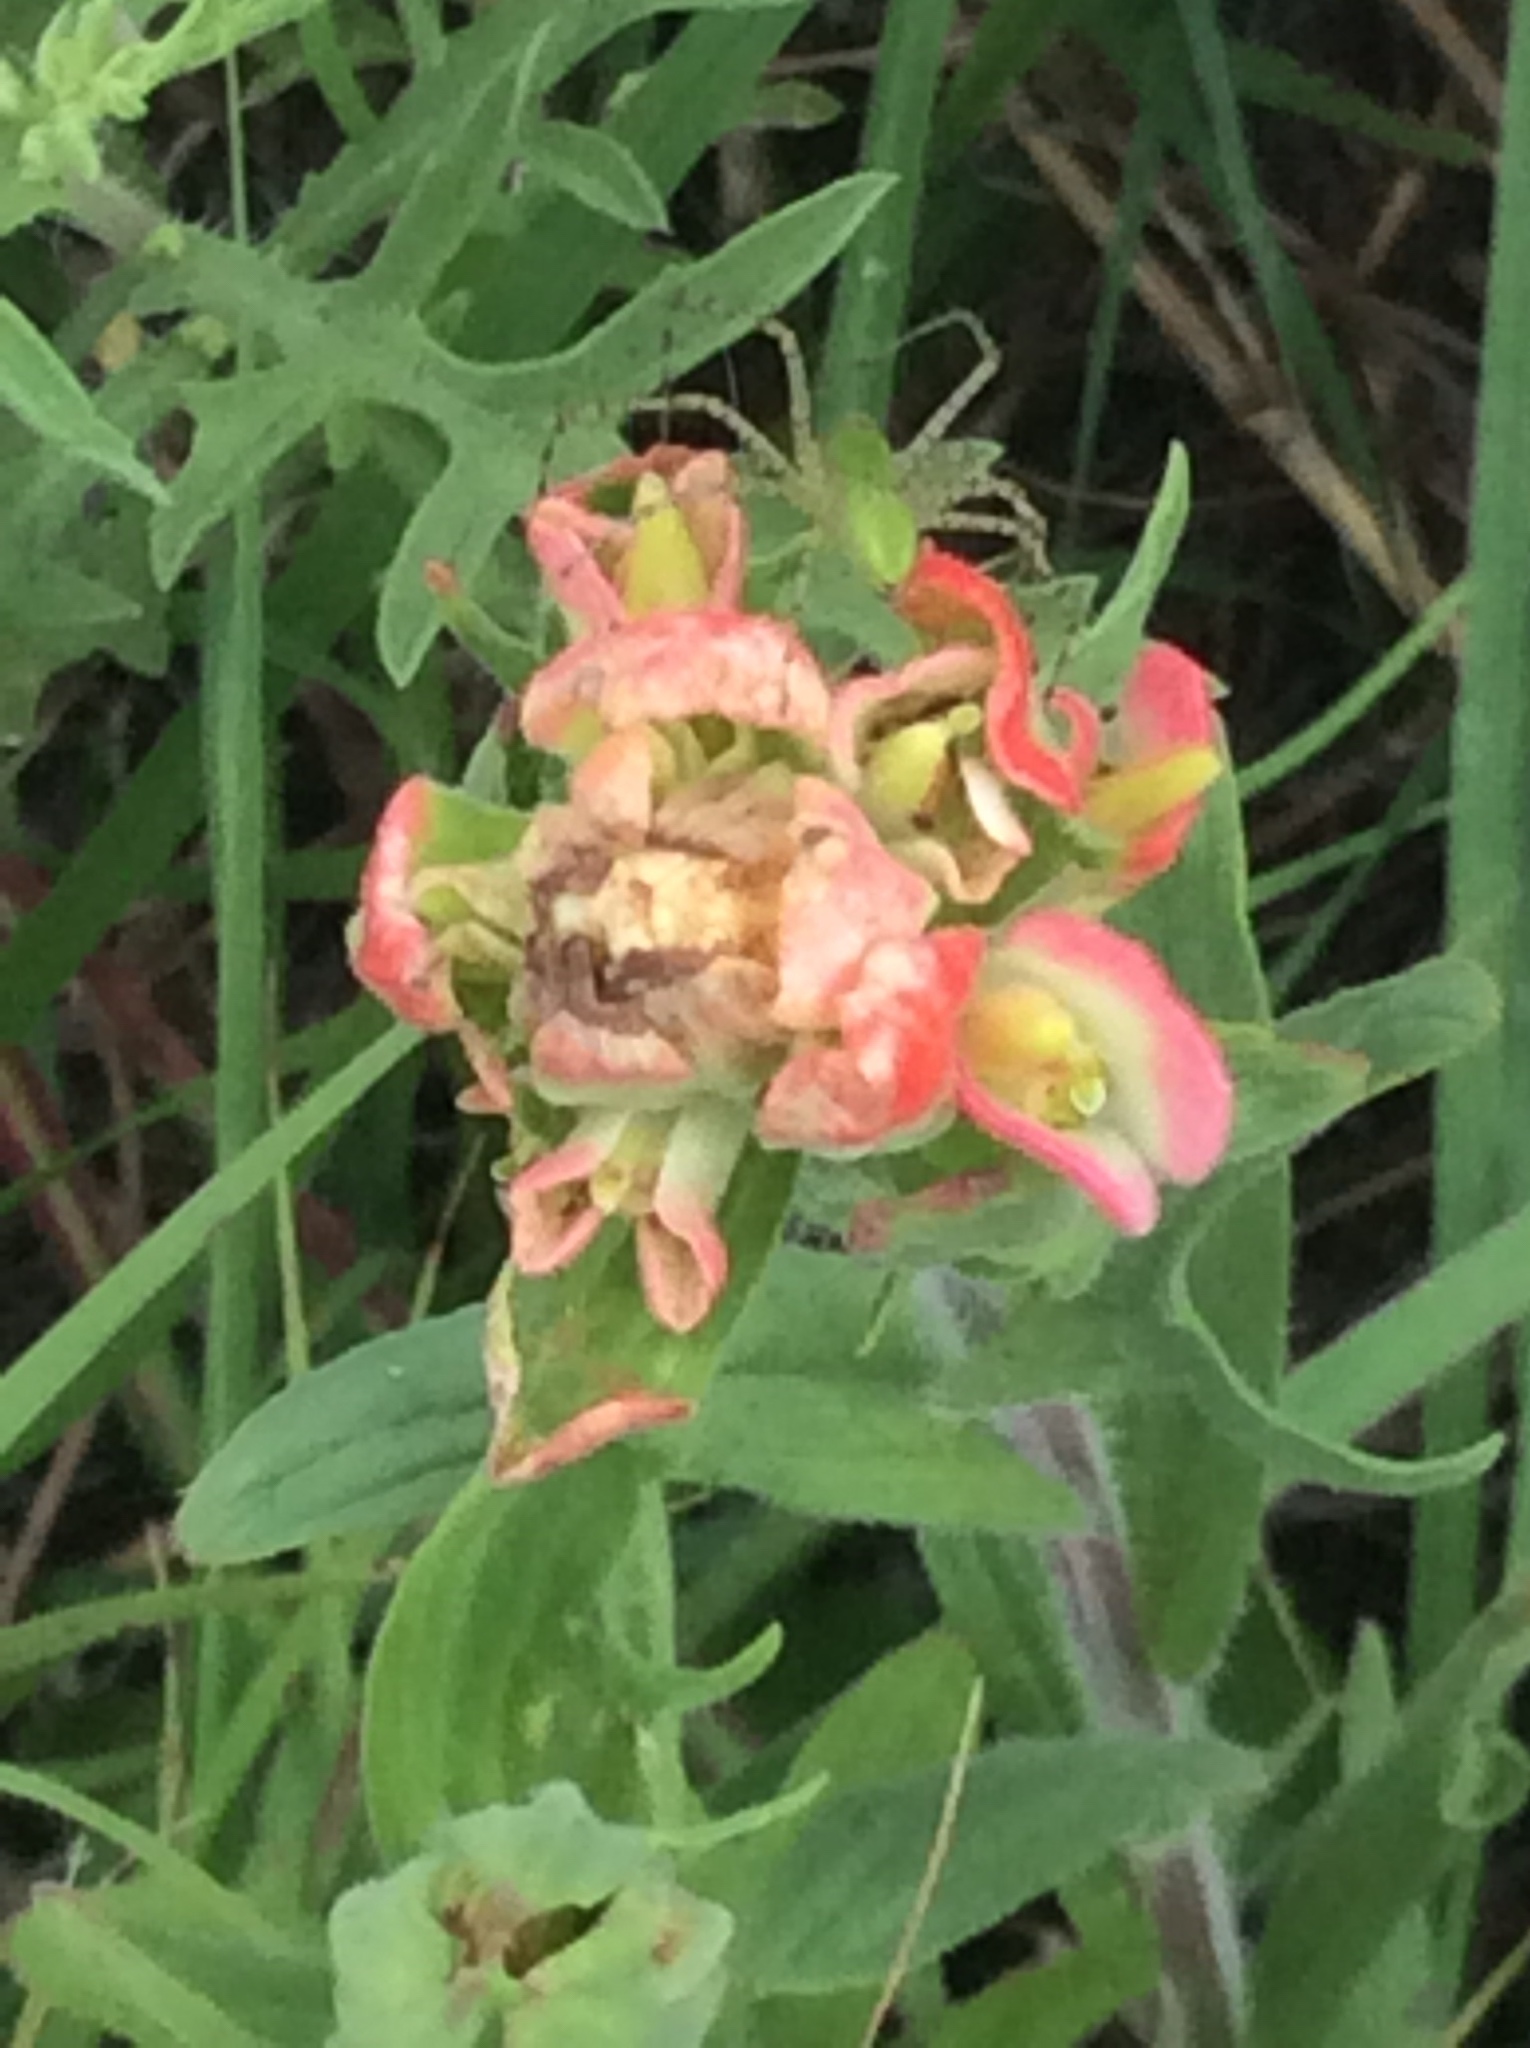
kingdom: Plantae
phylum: Tracheophyta
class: Magnoliopsida
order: Lamiales
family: Orobanchaceae
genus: Castilleja
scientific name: Castilleja indivisa
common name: Texas paintbrush
